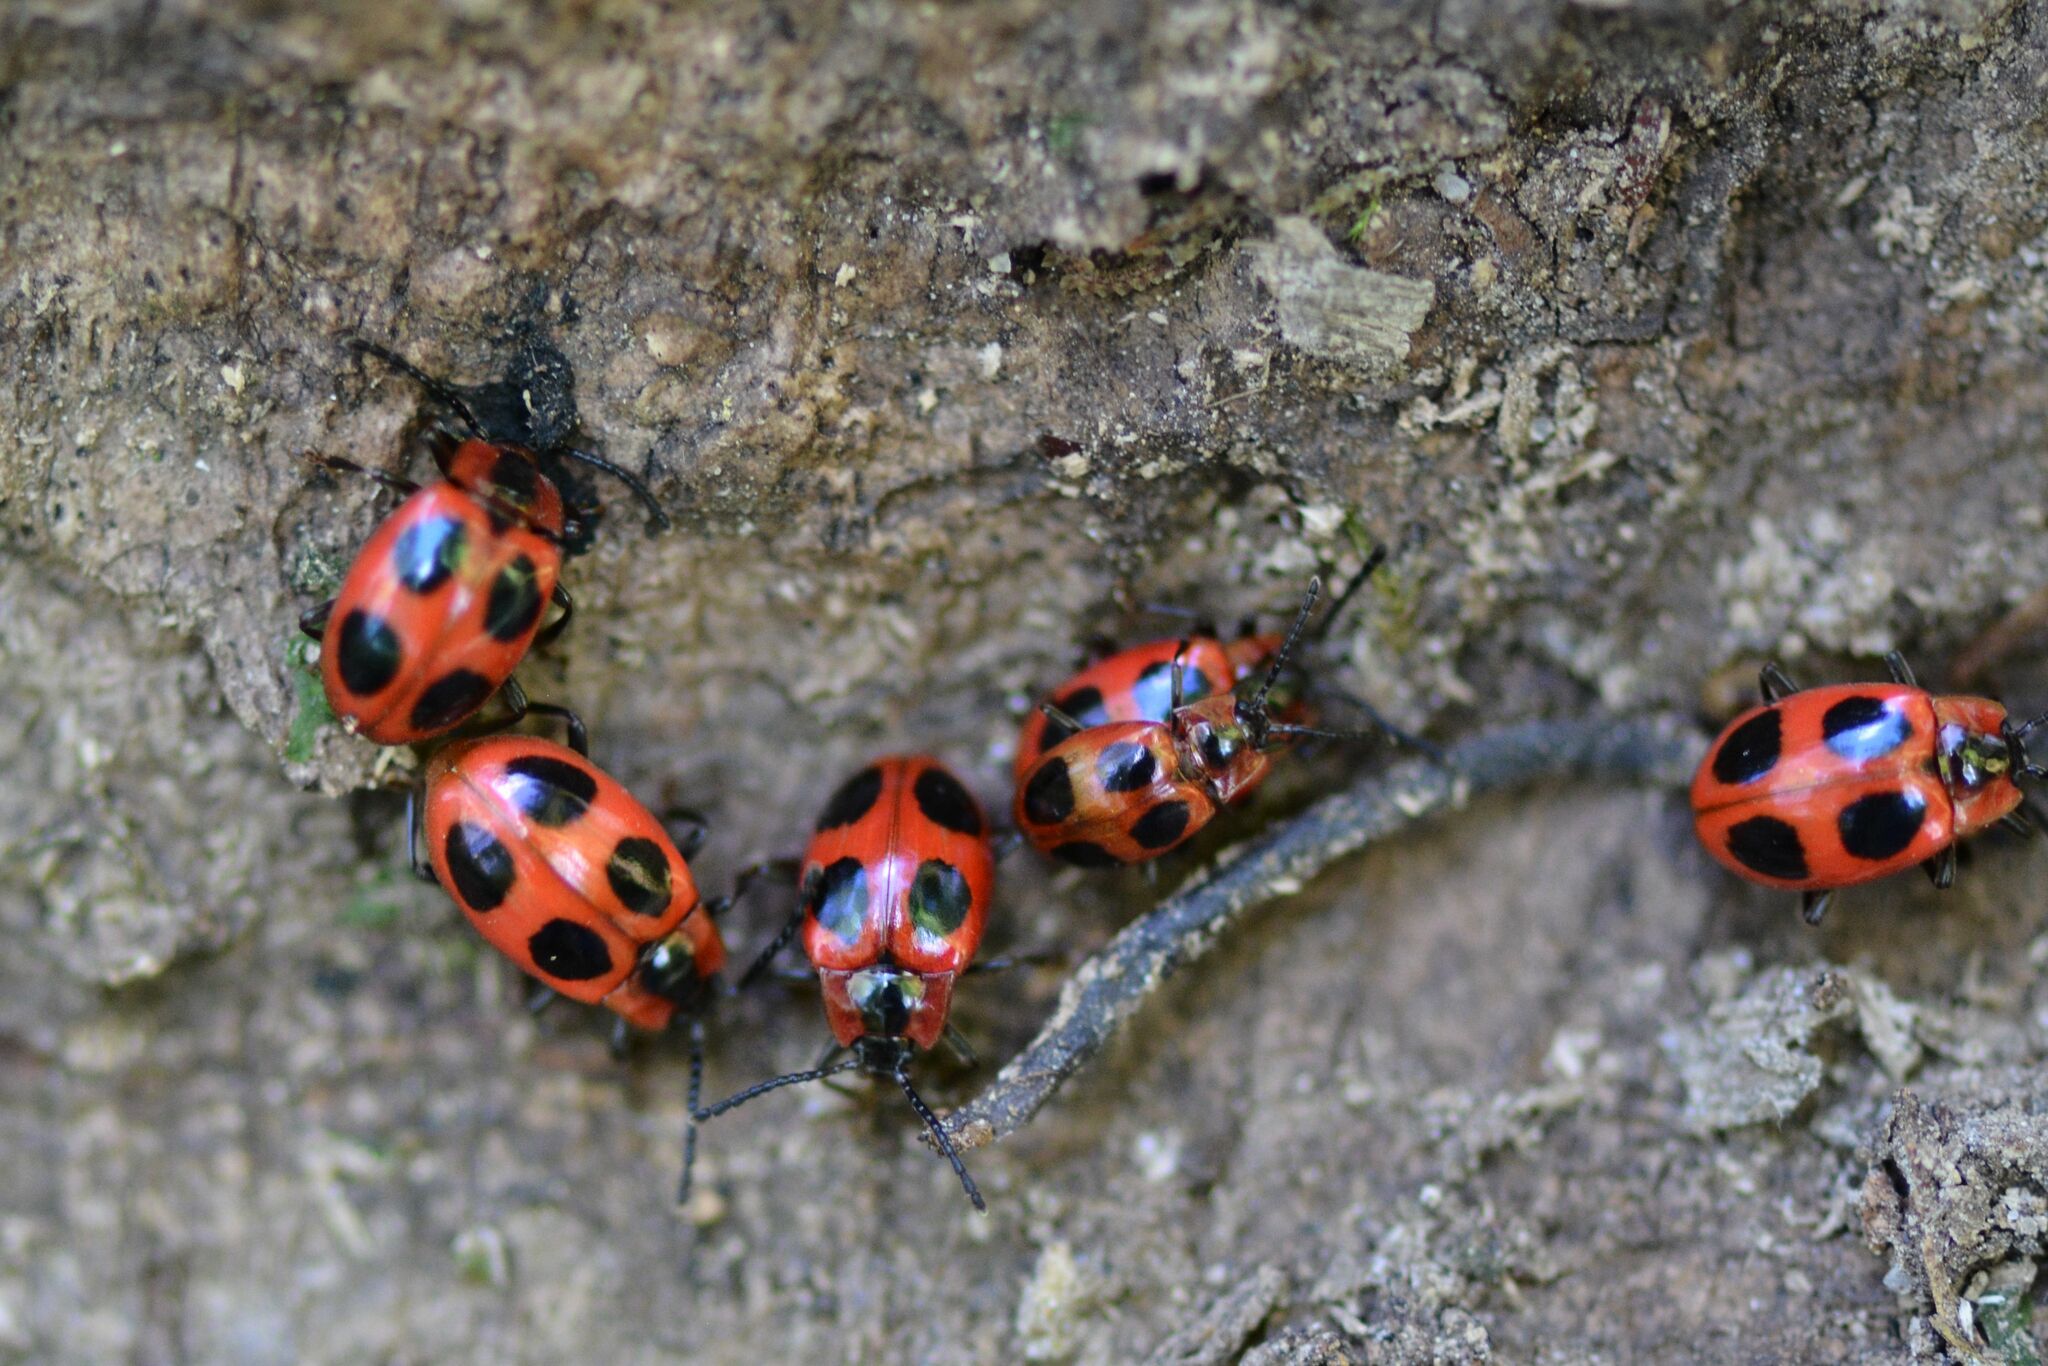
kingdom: Animalia
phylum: Arthropoda
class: Insecta
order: Coleoptera
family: Endomychidae
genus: Endomychus
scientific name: Endomychus coccineus
